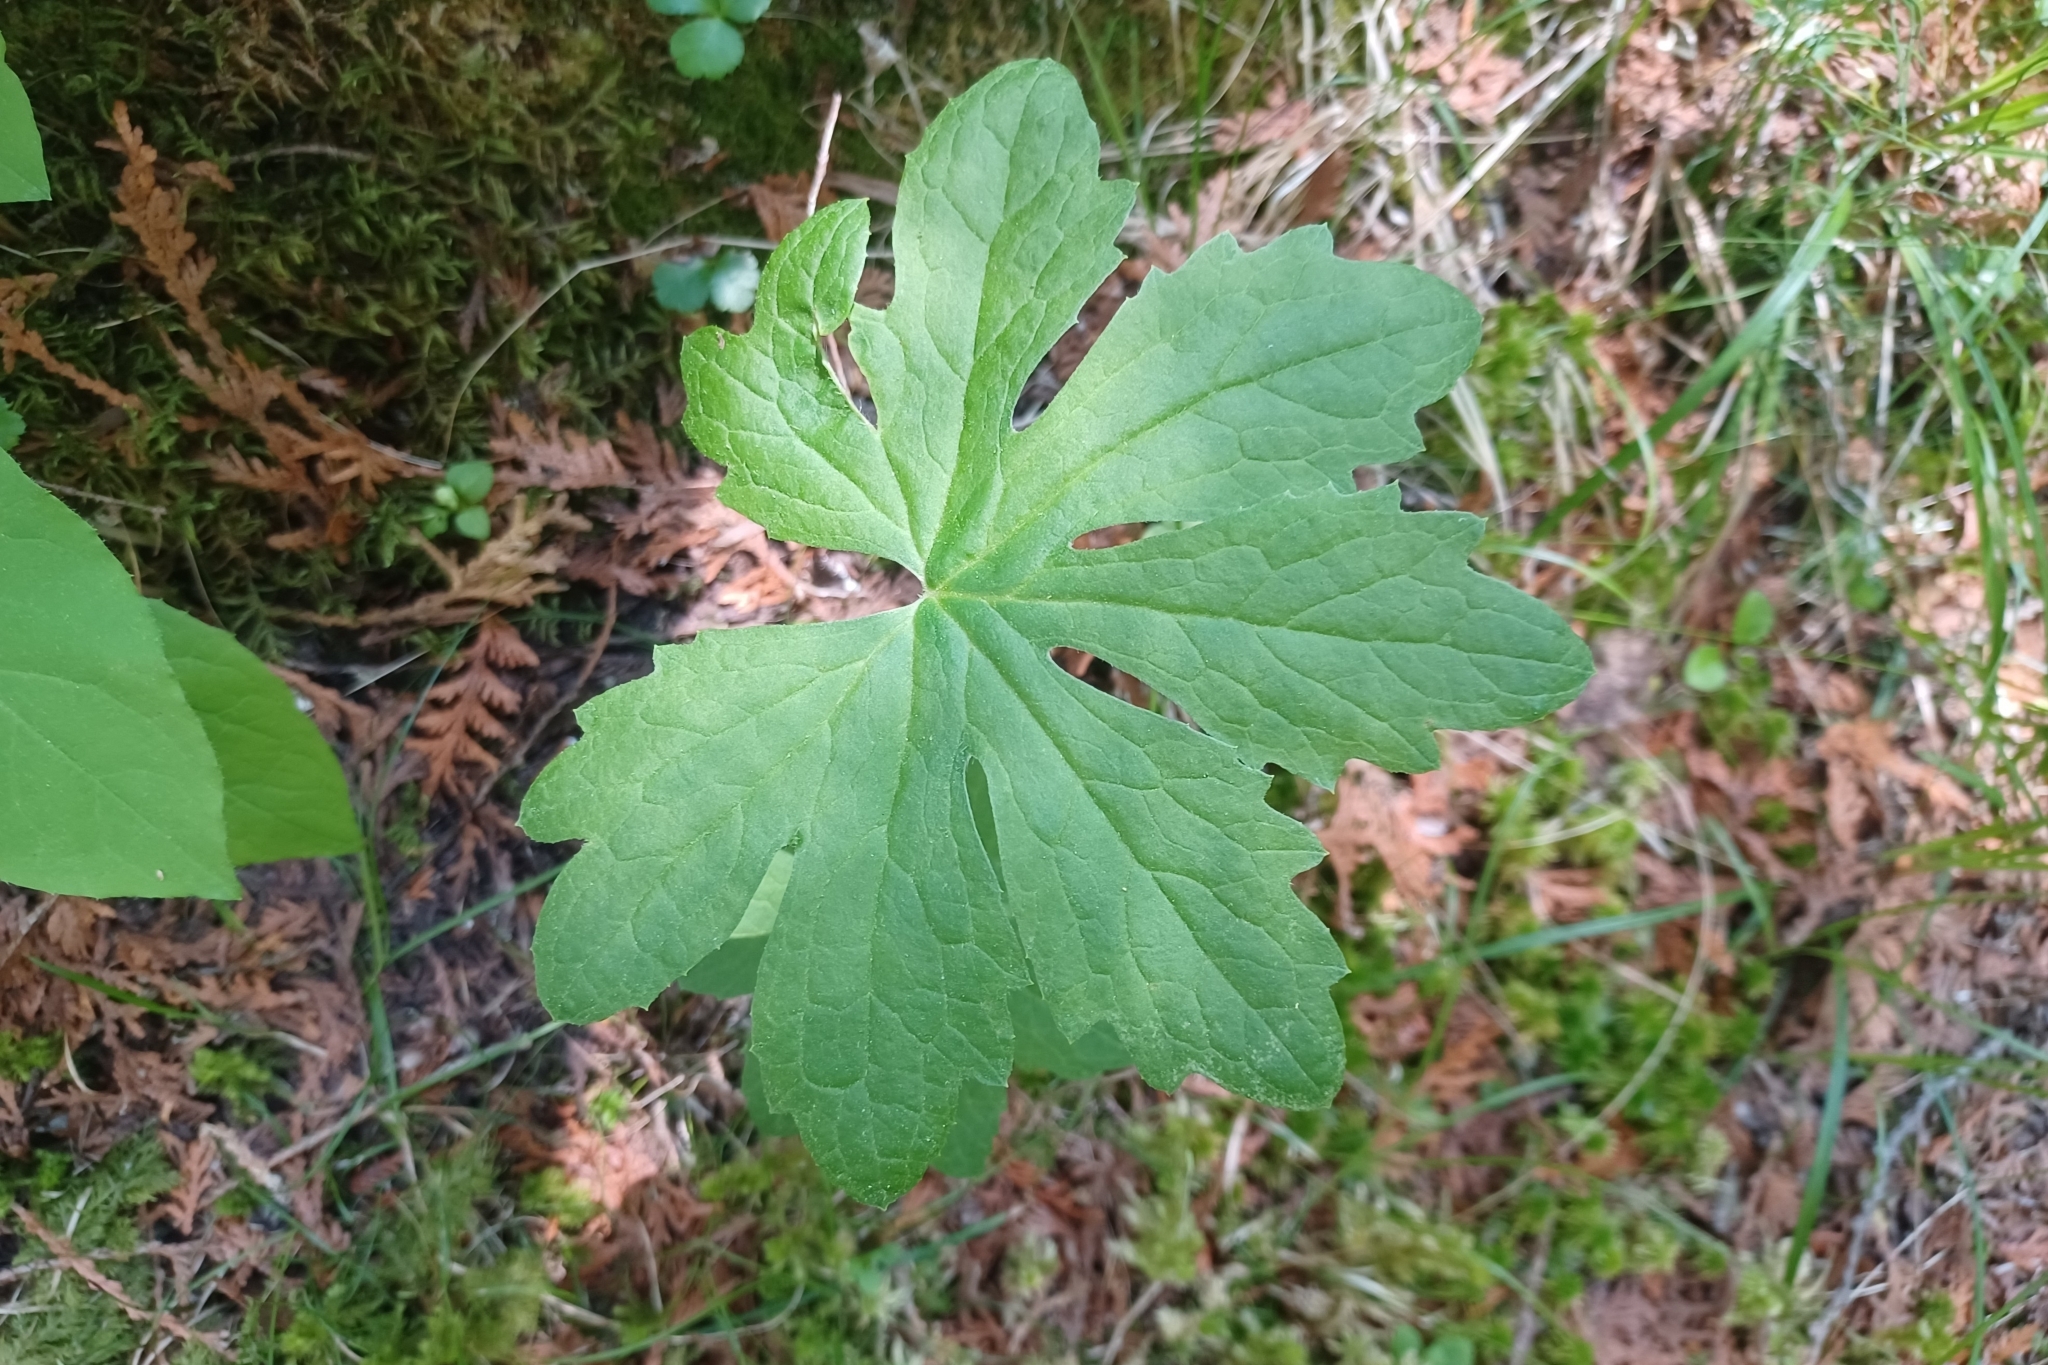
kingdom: Plantae
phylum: Tracheophyta
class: Magnoliopsida
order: Asterales
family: Asteraceae
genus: Petasites
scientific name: Petasites frigidus
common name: Arctic butterbur
